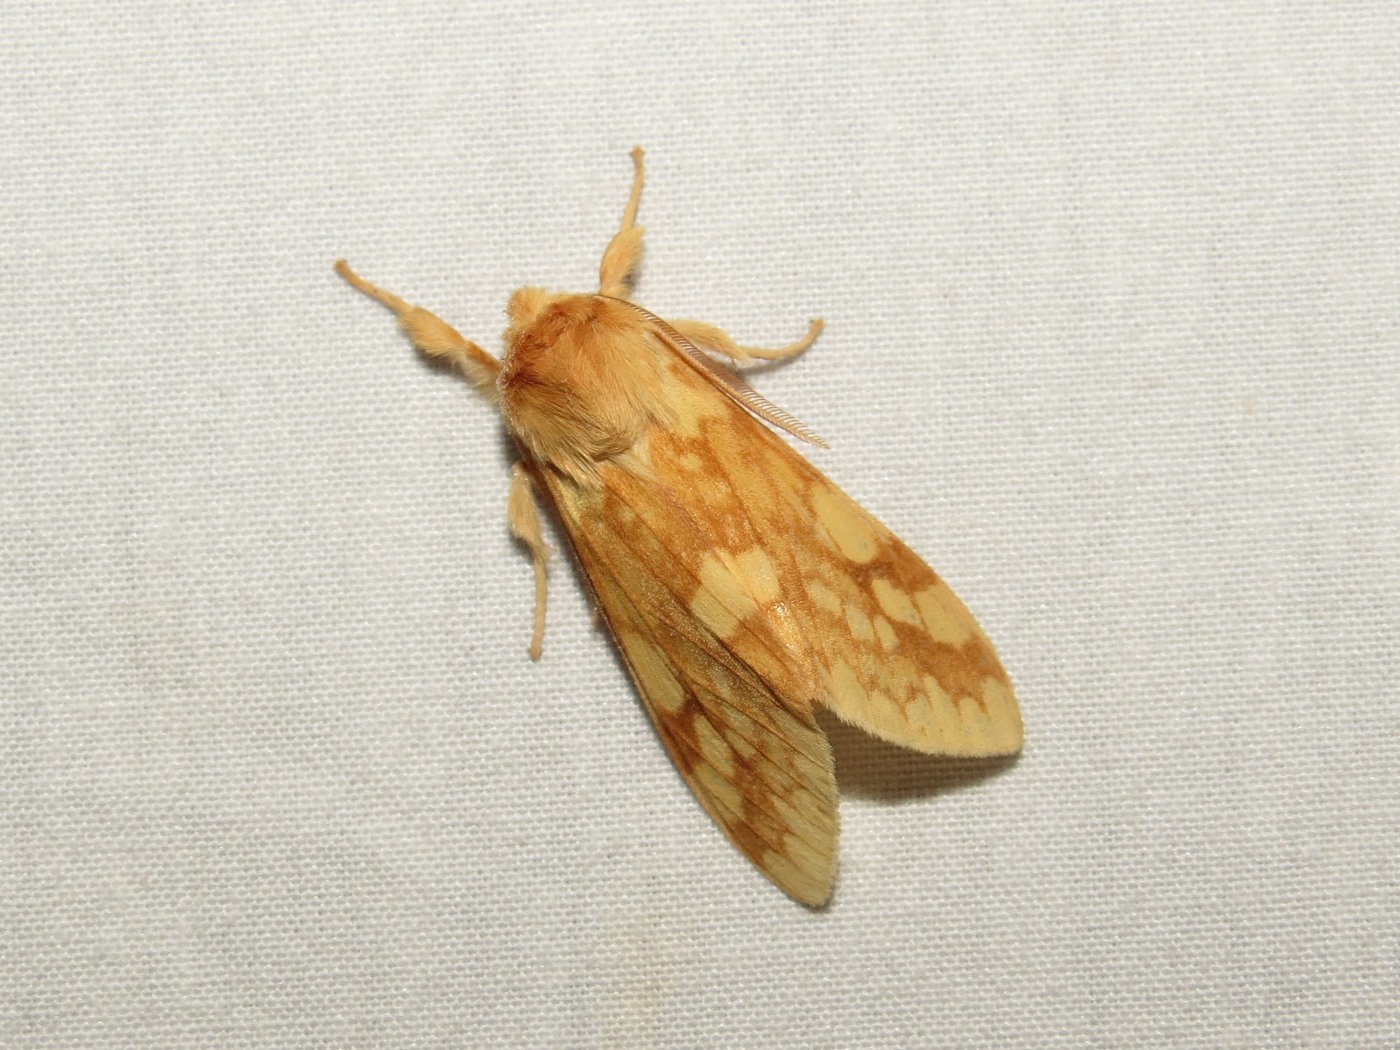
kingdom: Animalia
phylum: Arthropoda
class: Insecta
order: Lepidoptera
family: Erebidae
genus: Lophocampa
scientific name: Lophocampa maculata
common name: Spotted tussock moth
